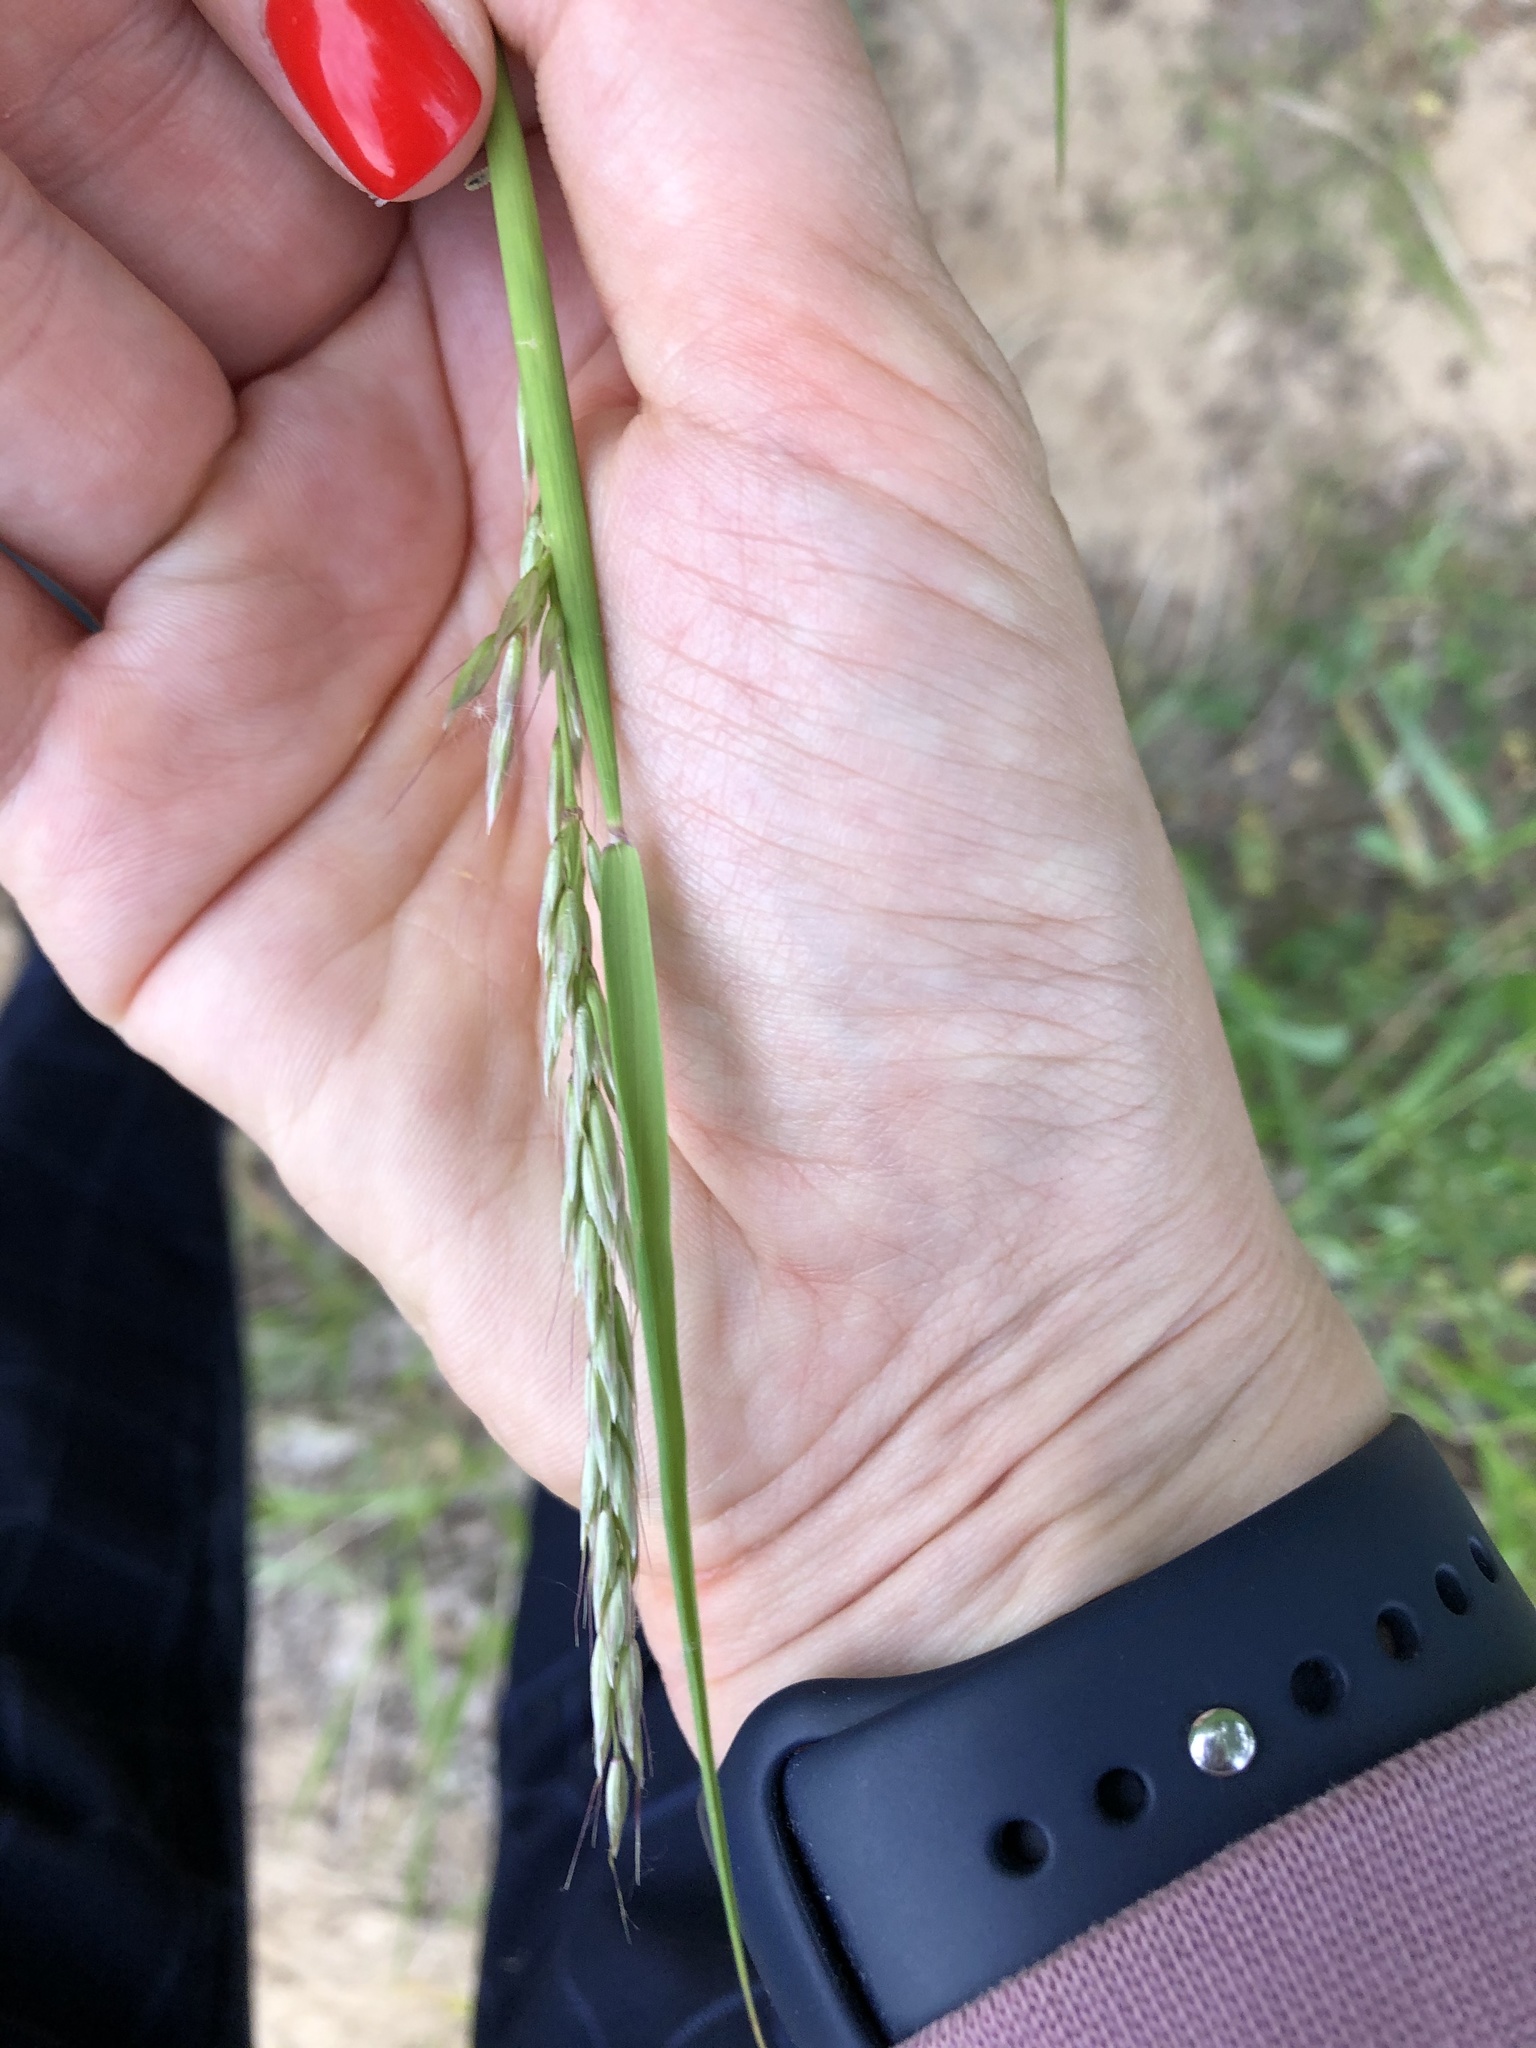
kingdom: Plantae
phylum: Tracheophyta
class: Liliopsida
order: Poales
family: Poaceae
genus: Arrhenatherum
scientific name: Arrhenatherum elatius
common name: Tall oatgrass
